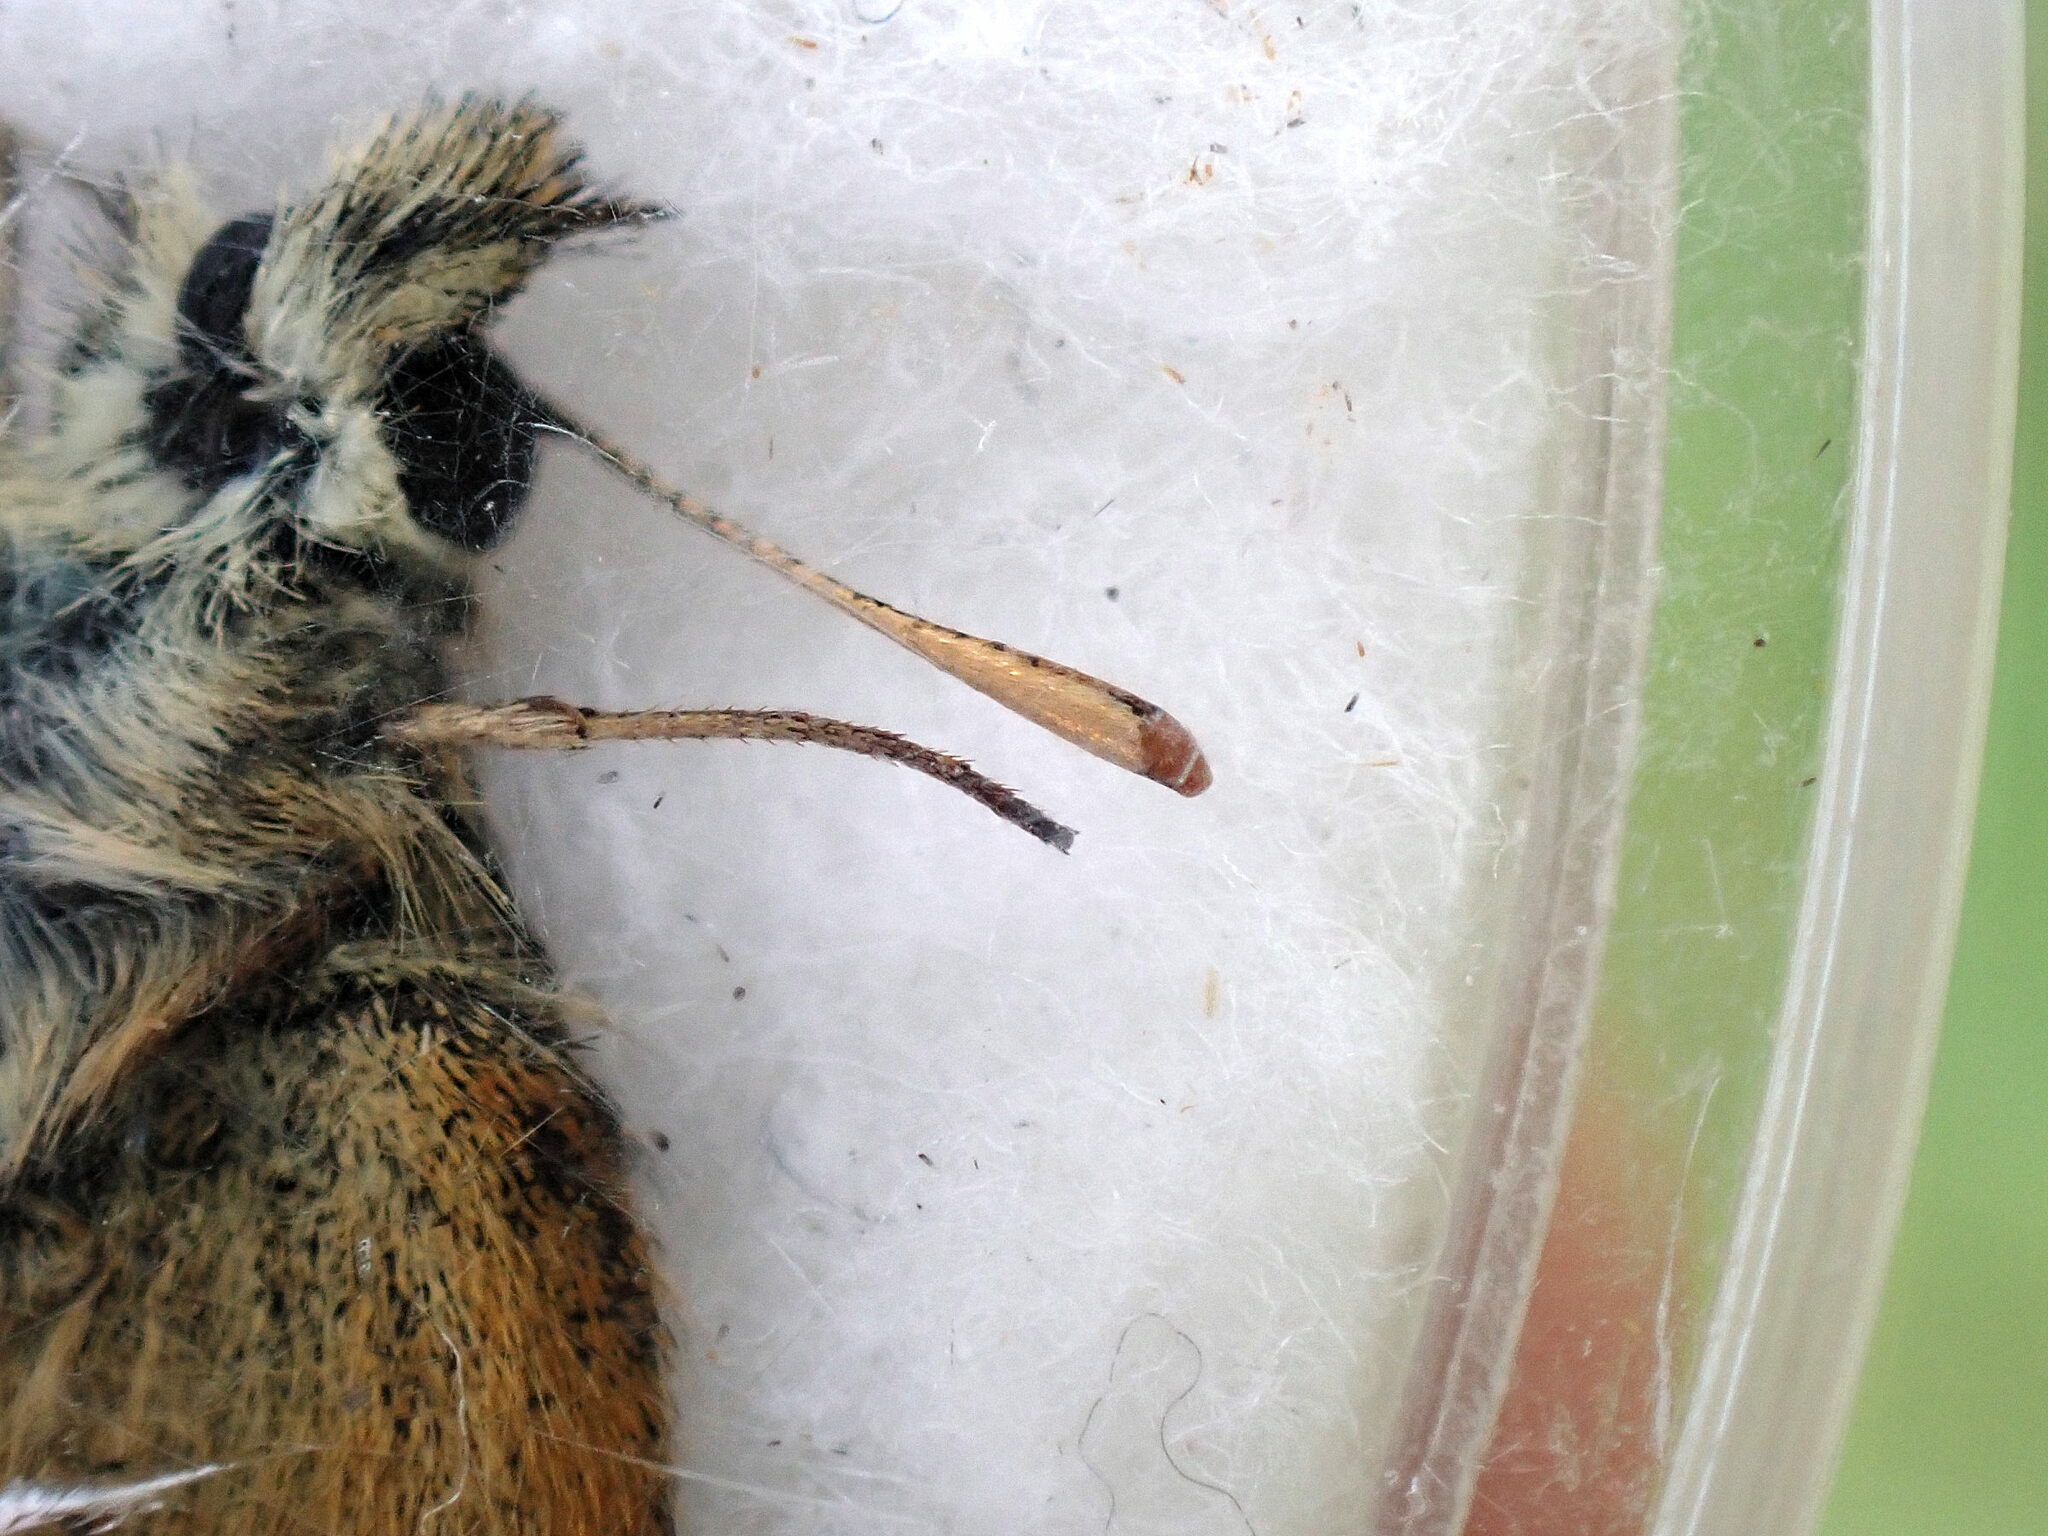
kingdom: Animalia
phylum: Arthropoda
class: Insecta
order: Lepidoptera
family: Hesperiidae
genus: Thymelicus
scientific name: Thymelicus sylvestris
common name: Small skipper
